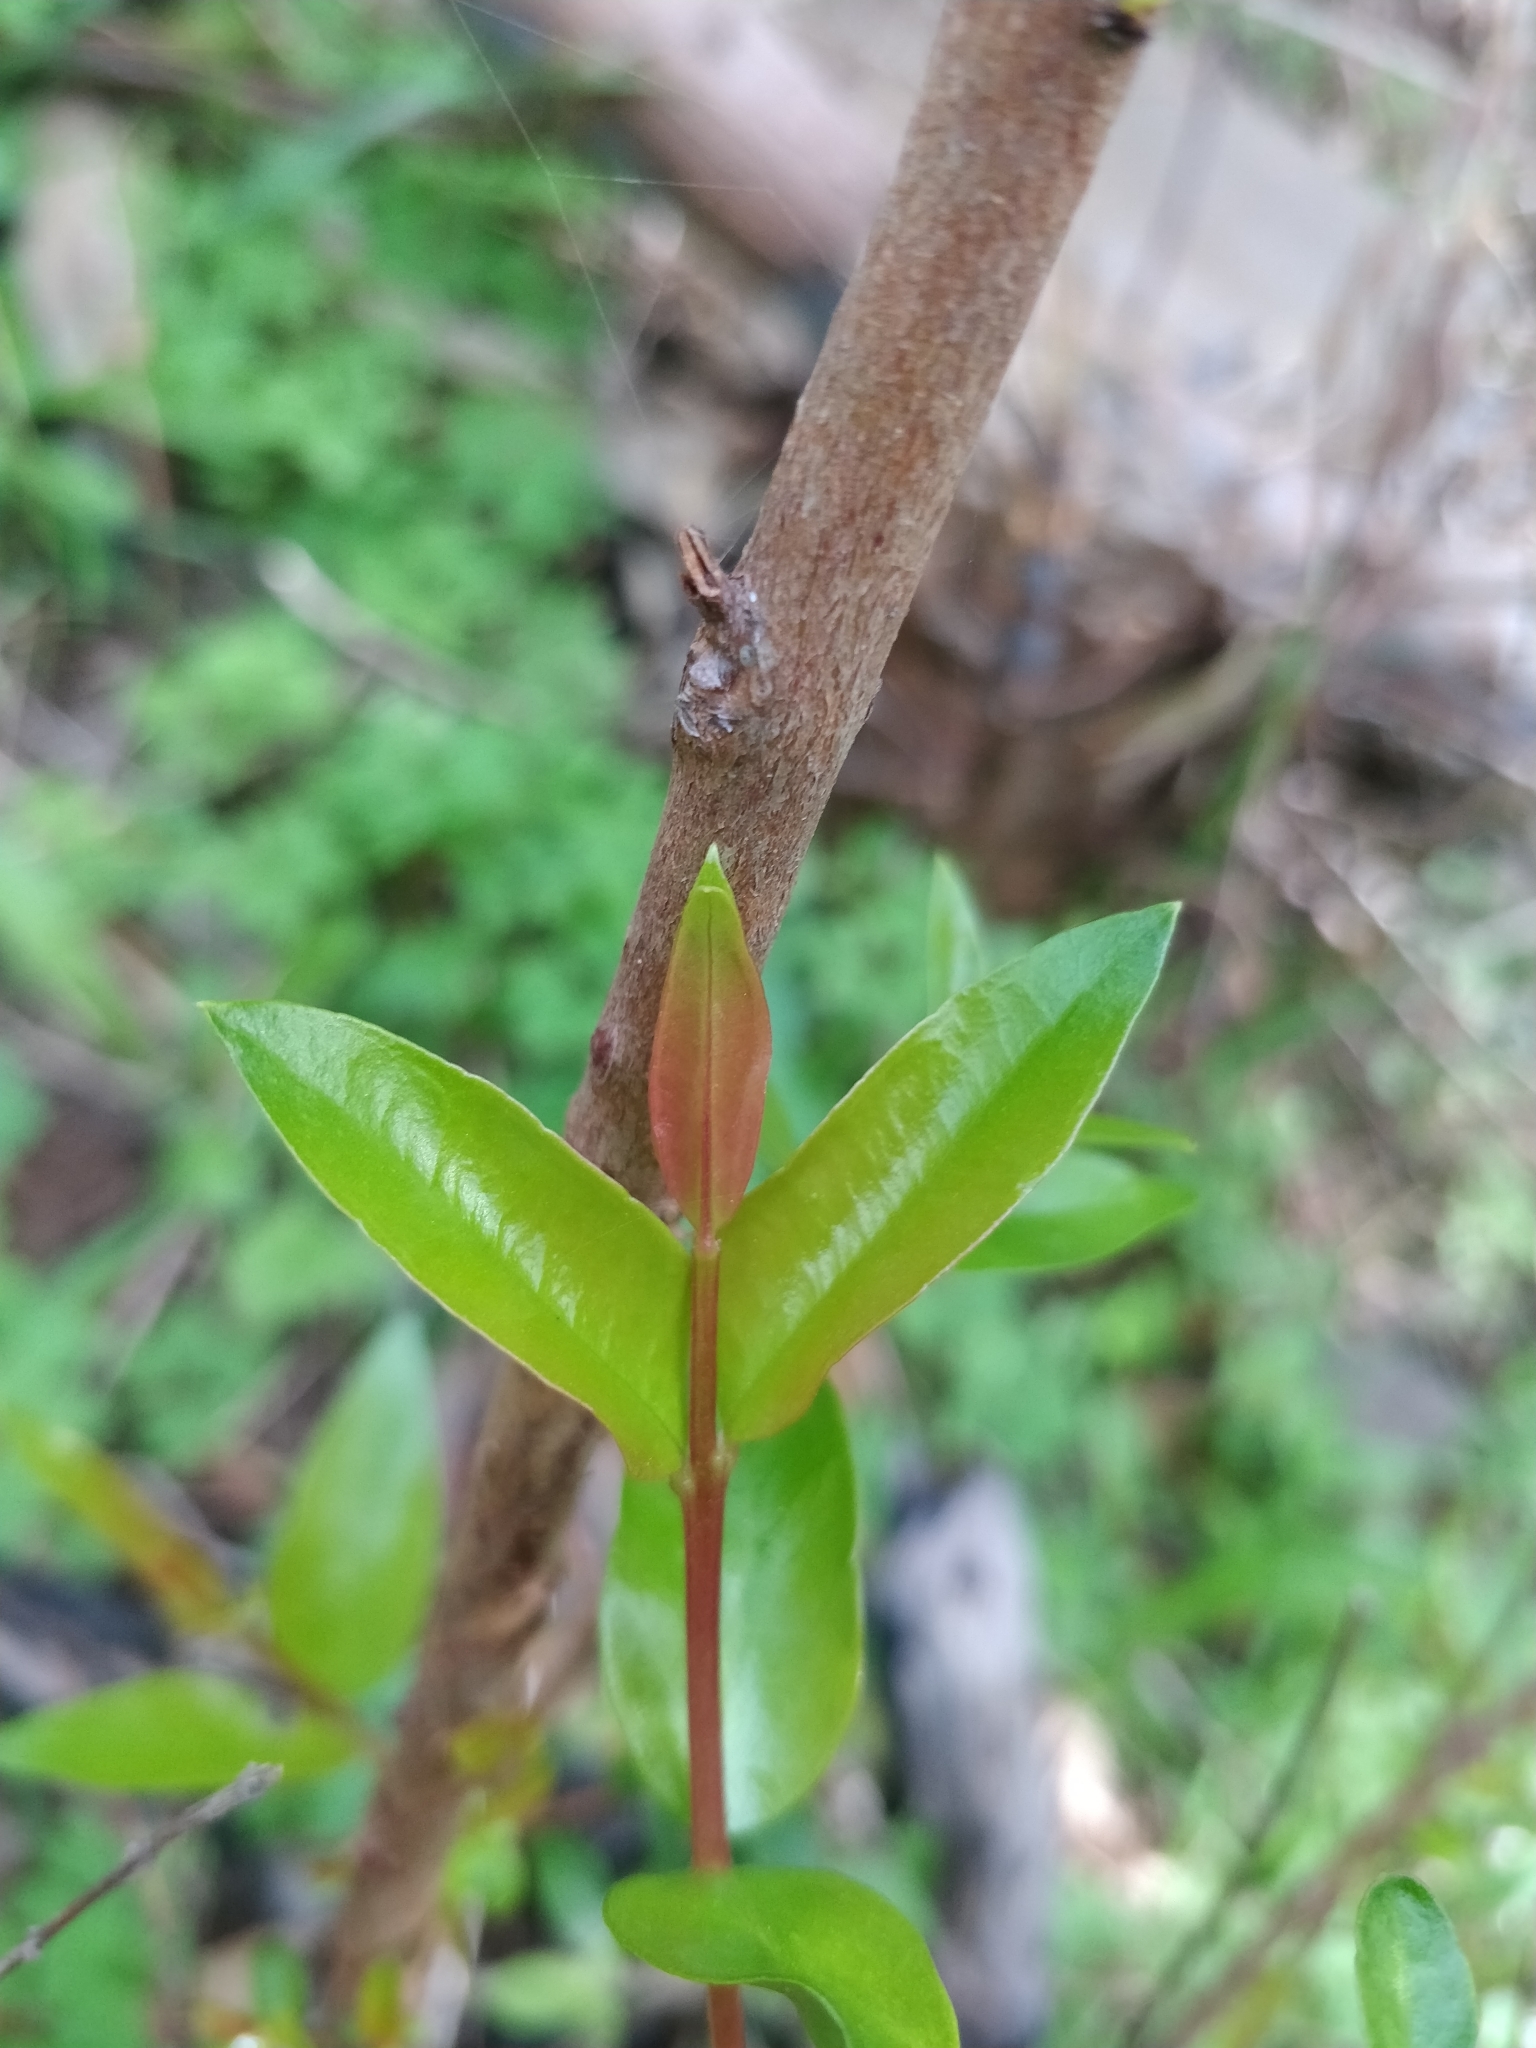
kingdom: Plantae
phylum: Tracheophyta
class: Magnoliopsida
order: Myrtales
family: Myrtaceae
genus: Myrtus
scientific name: Myrtus communis
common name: Myrtle
